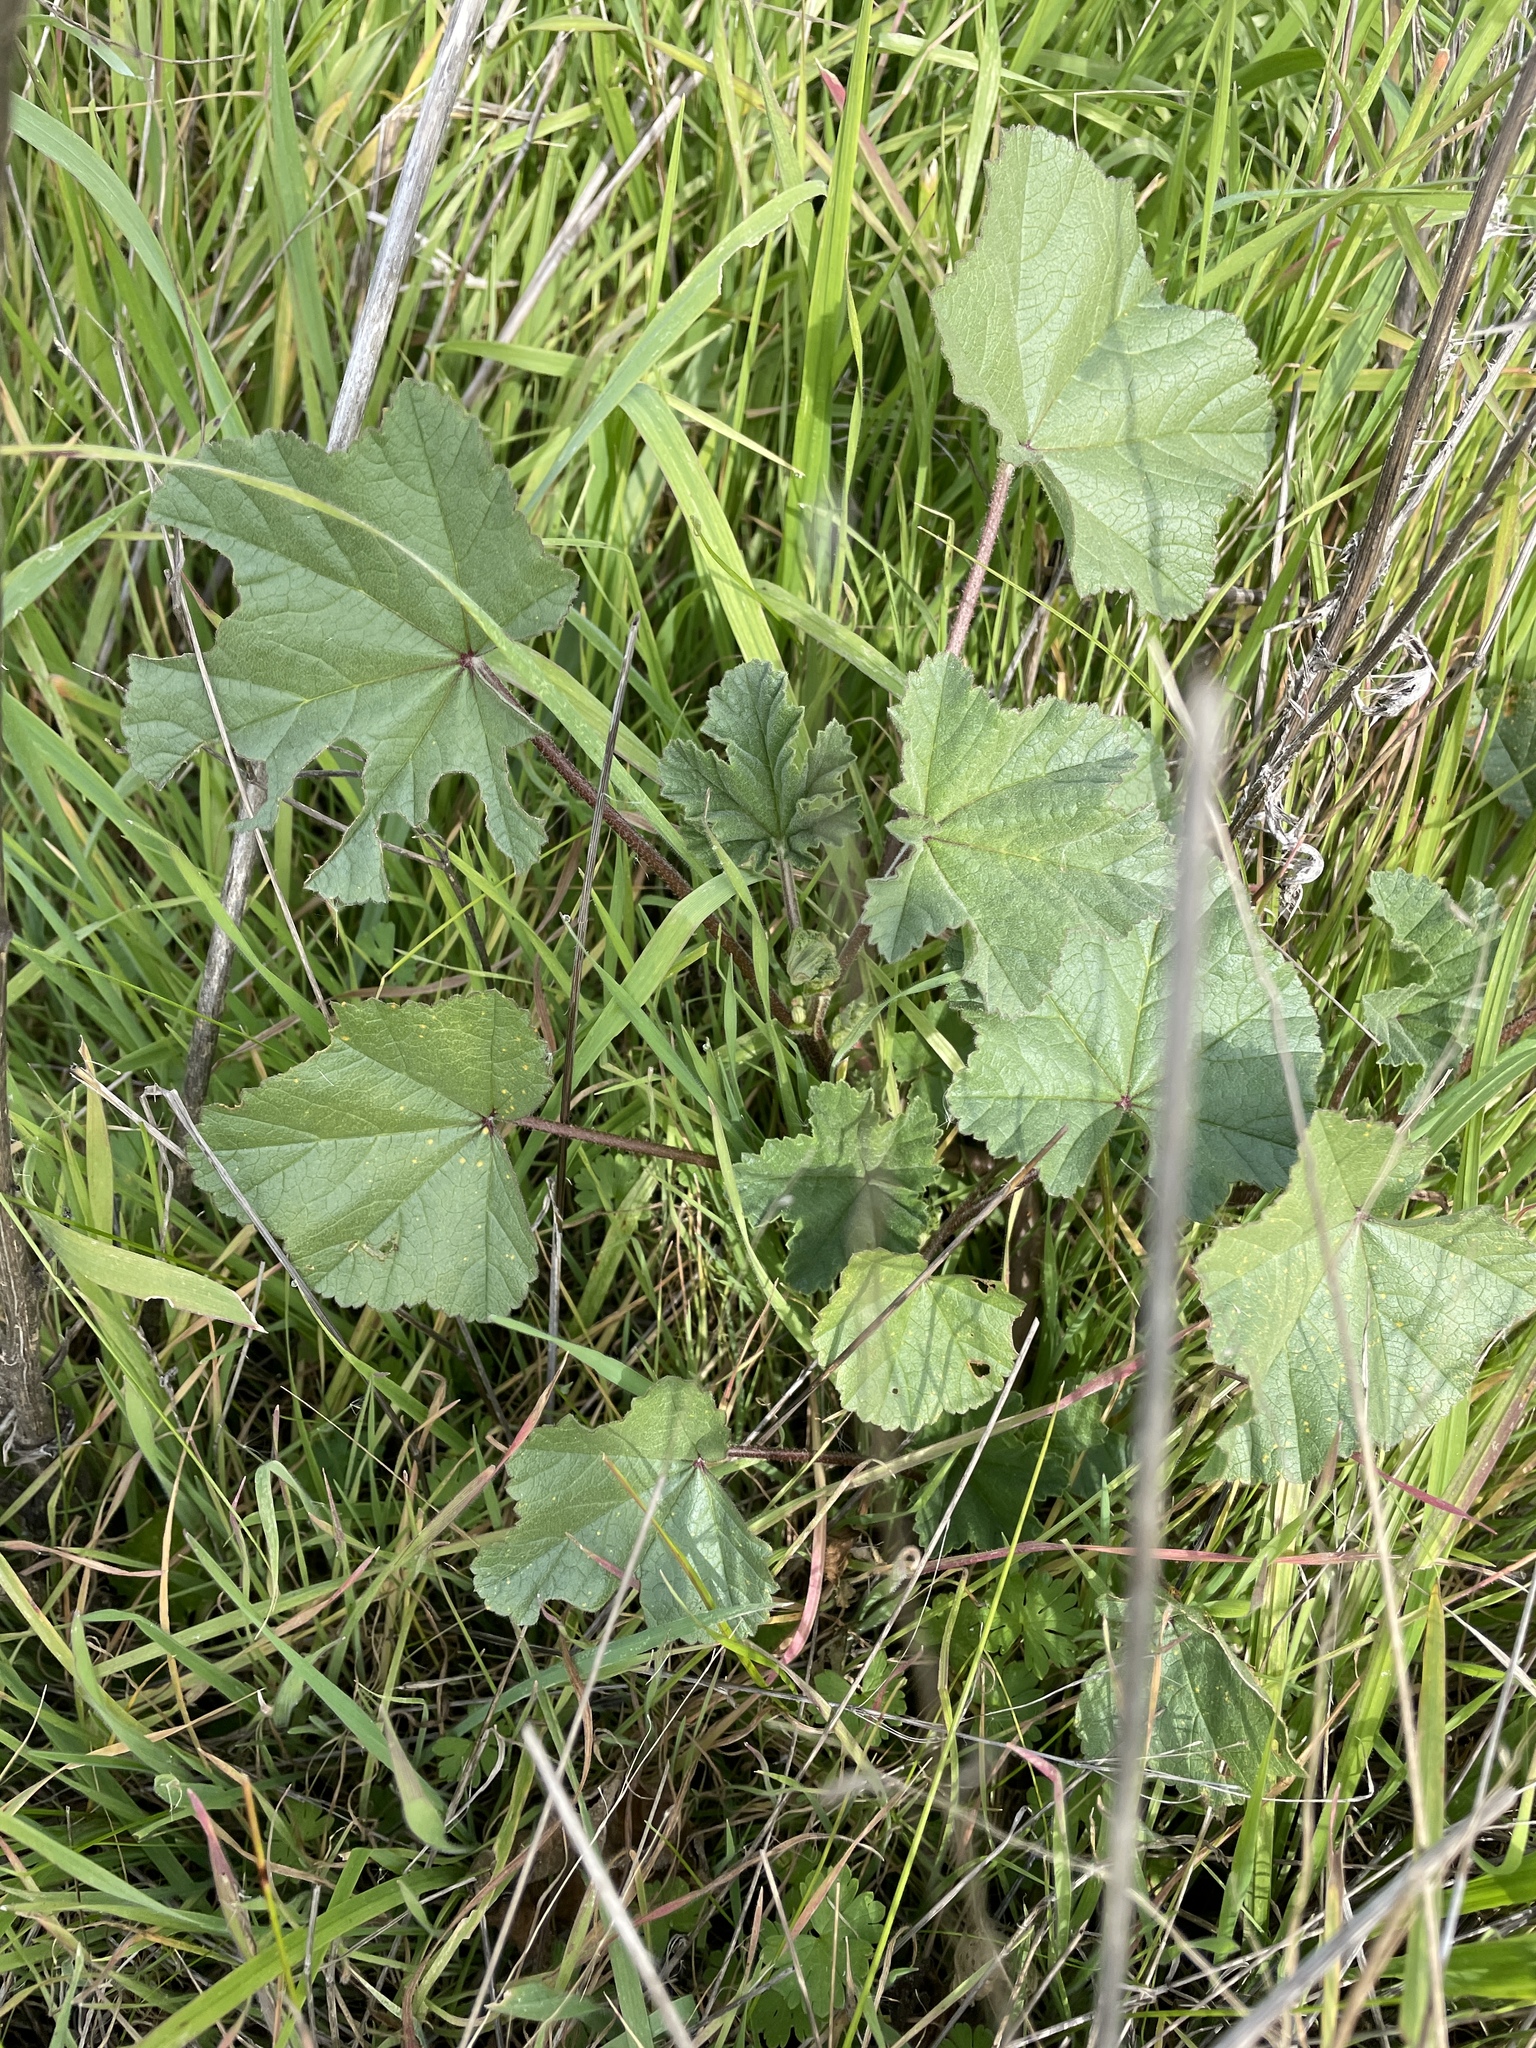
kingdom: Plantae
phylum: Tracheophyta
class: Magnoliopsida
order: Malvales
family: Malvaceae
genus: Malva
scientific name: Malva
